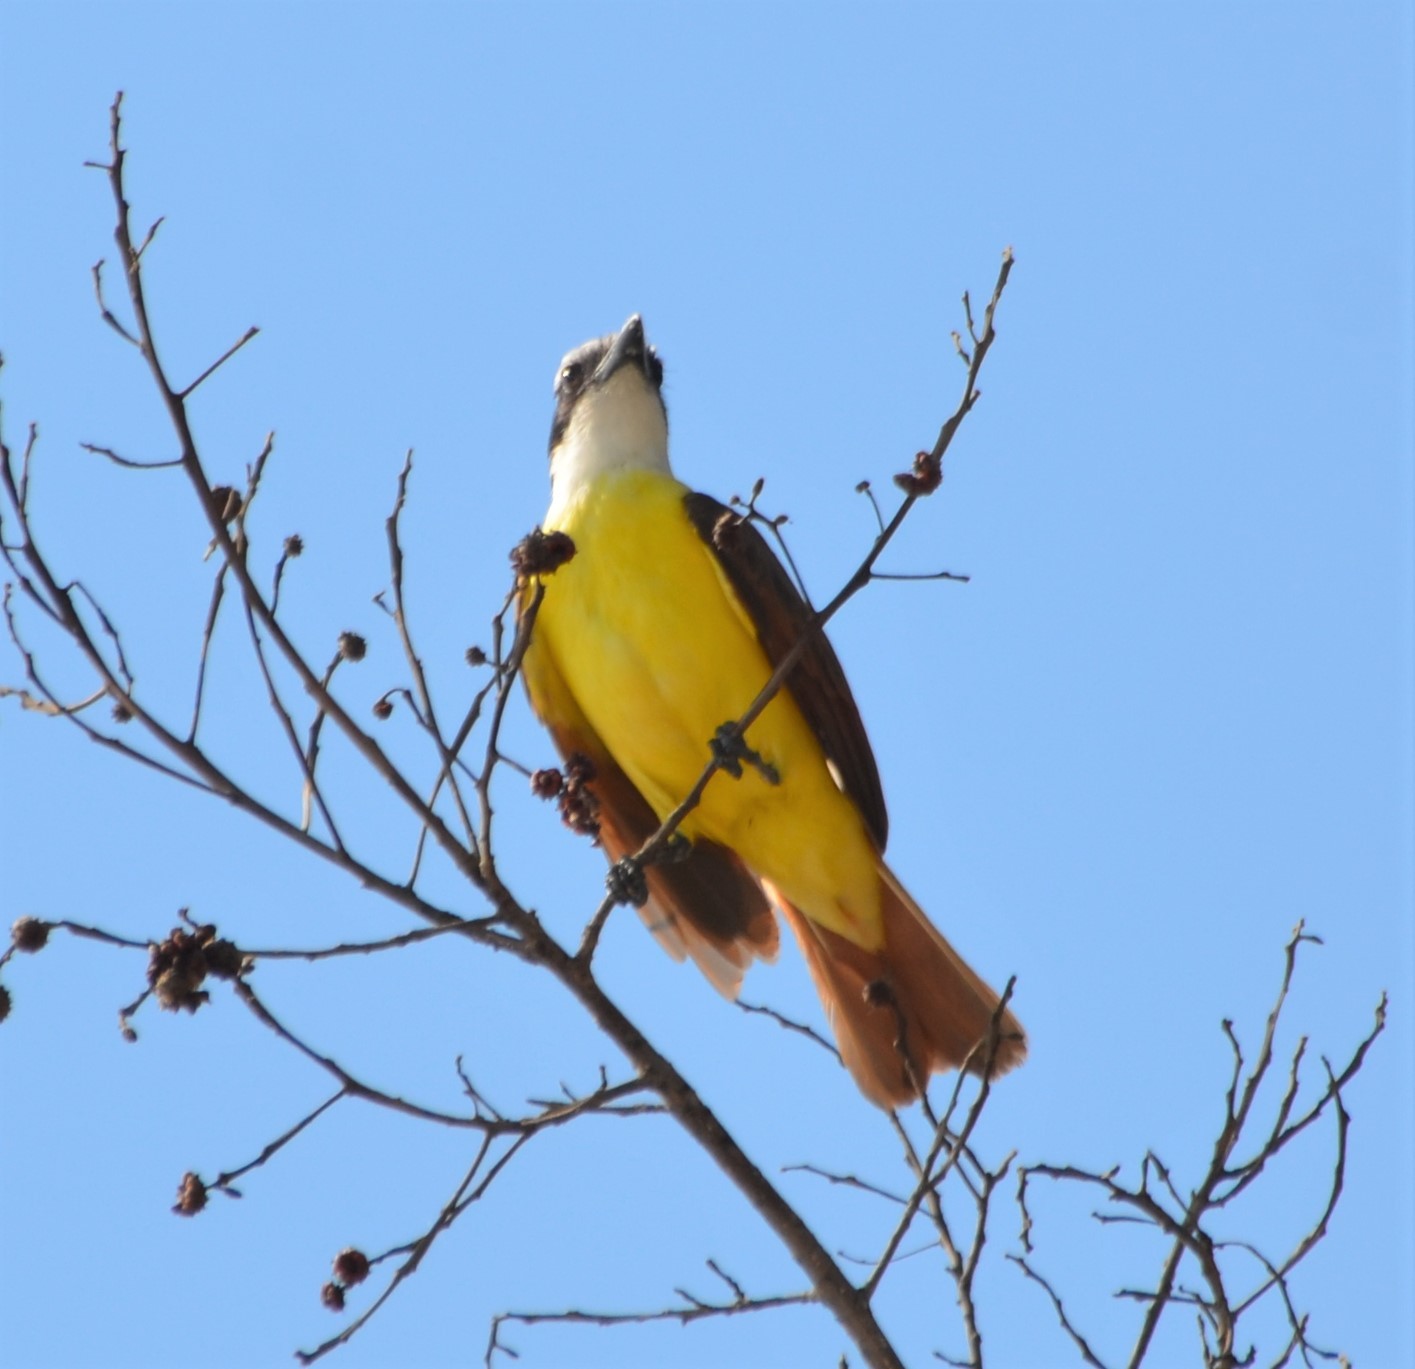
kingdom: Animalia
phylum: Chordata
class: Aves
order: Passeriformes
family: Tyrannidae
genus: Pitangus
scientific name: Pitangus sulphuratus
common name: Great kiskadee
